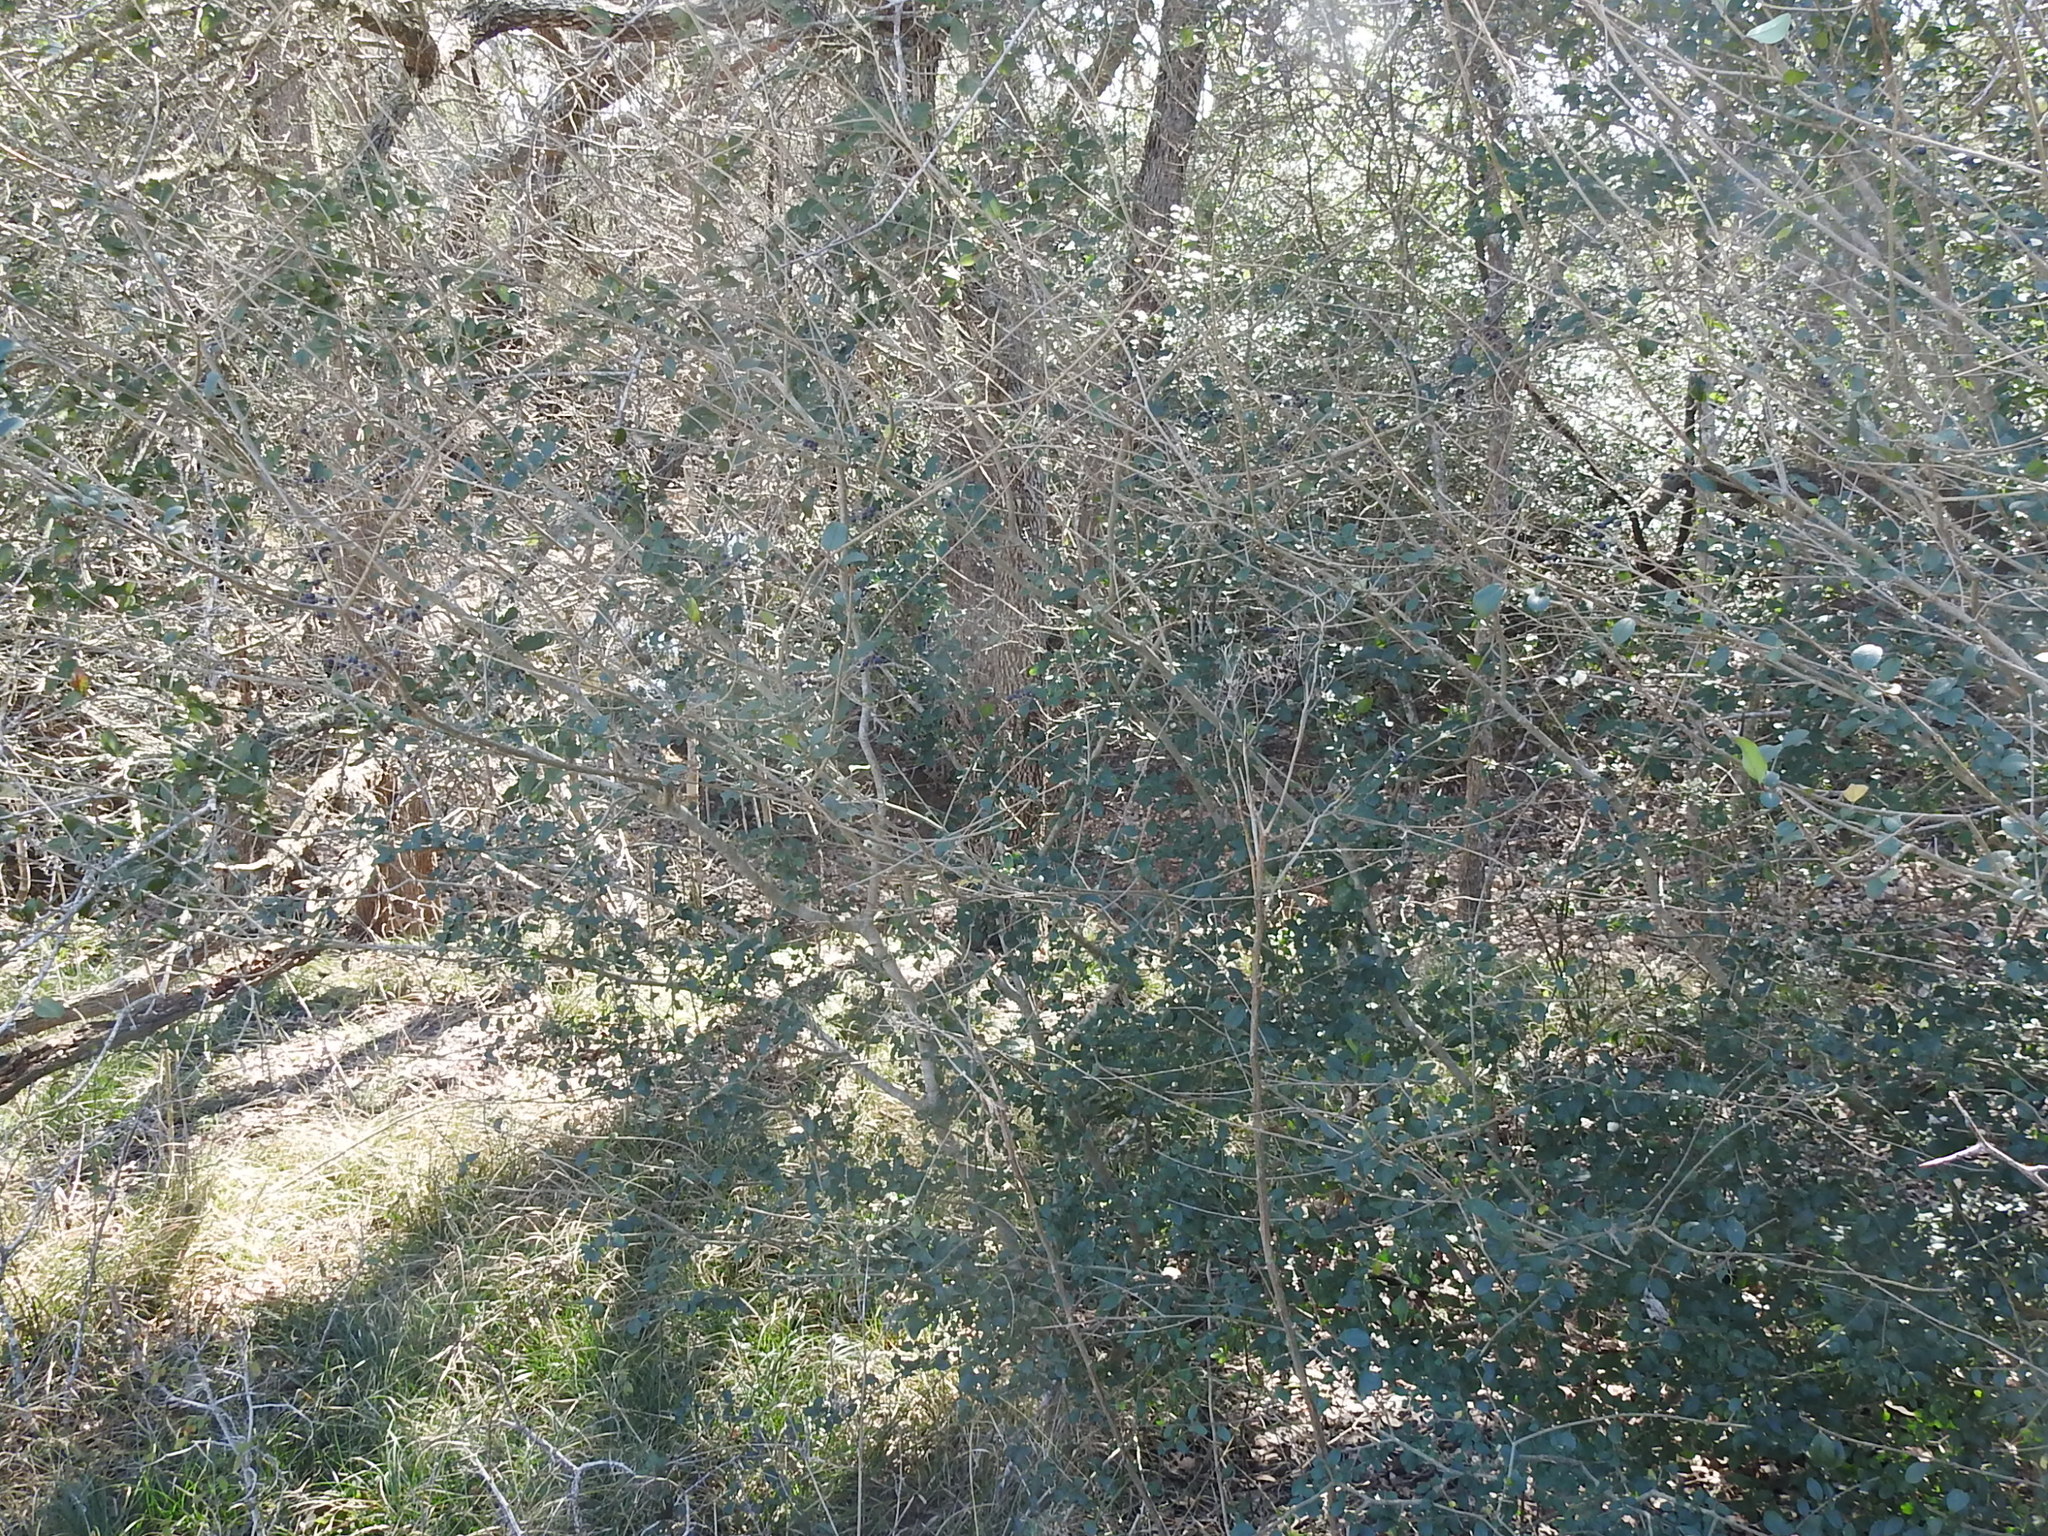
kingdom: Plantae
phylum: Tracheophyta
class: Magnoliopsida
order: Lamiales
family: Oleaceae
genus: Ligustrum
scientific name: Ligustrum sinense
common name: Chinese privet
